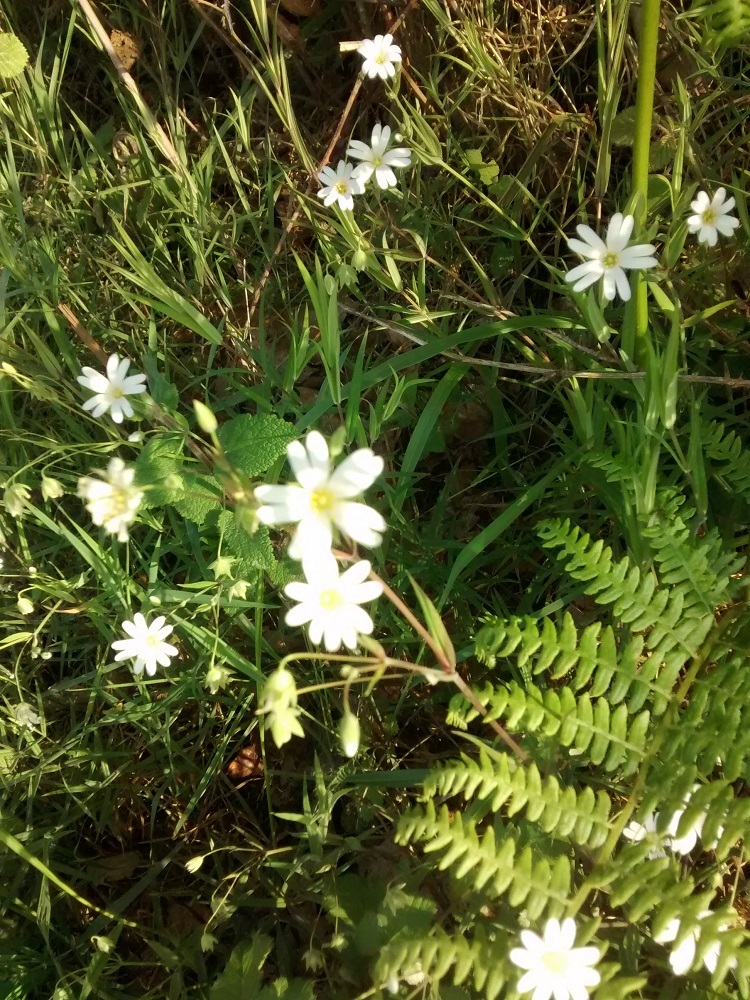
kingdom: Plantae
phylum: Tracheophyta
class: Magnoliopsida
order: Caryophyllales
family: Caryophyllaceae
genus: Rabelera
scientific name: Rabelera holostea
